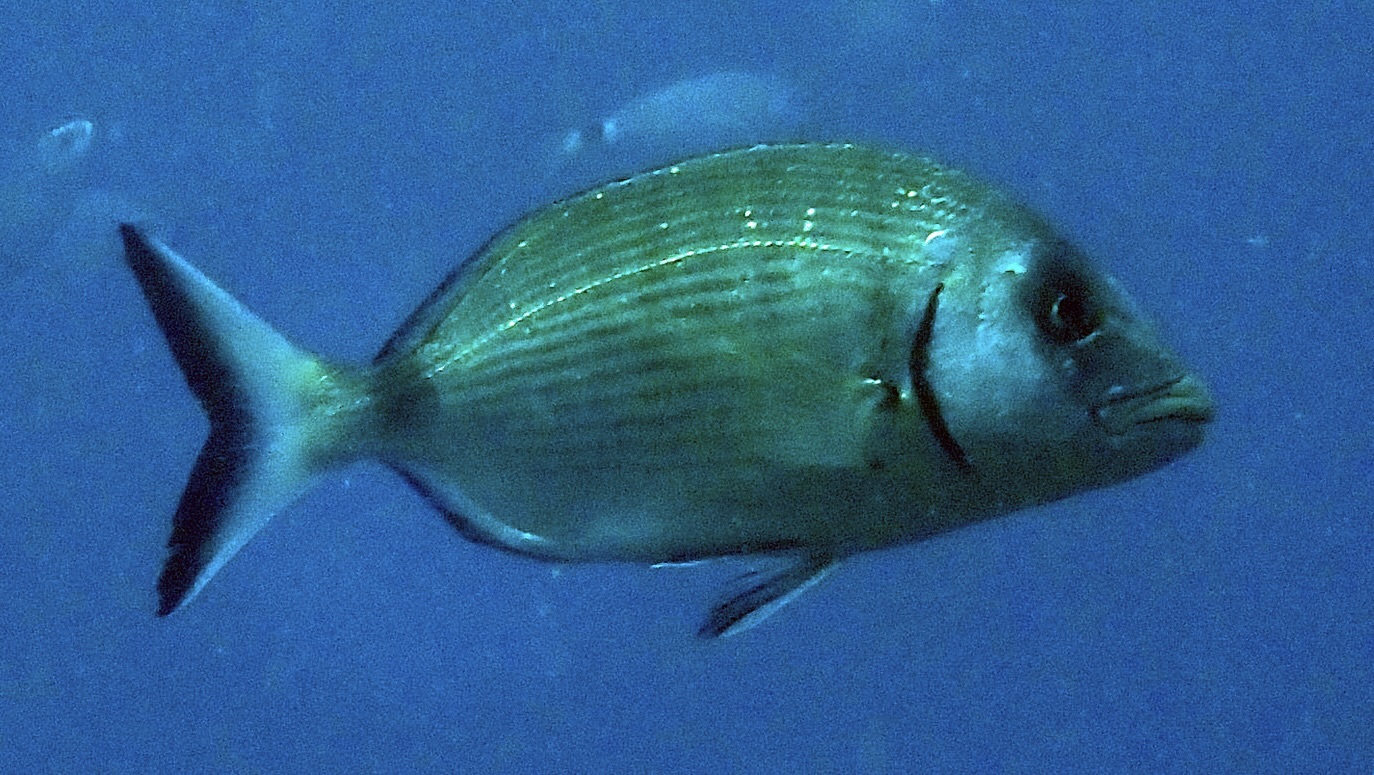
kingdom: Animalia
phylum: Chordata
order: Perciformes
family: Sparidae
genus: Diplodus
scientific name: Diplodus sargus
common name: White seabream
